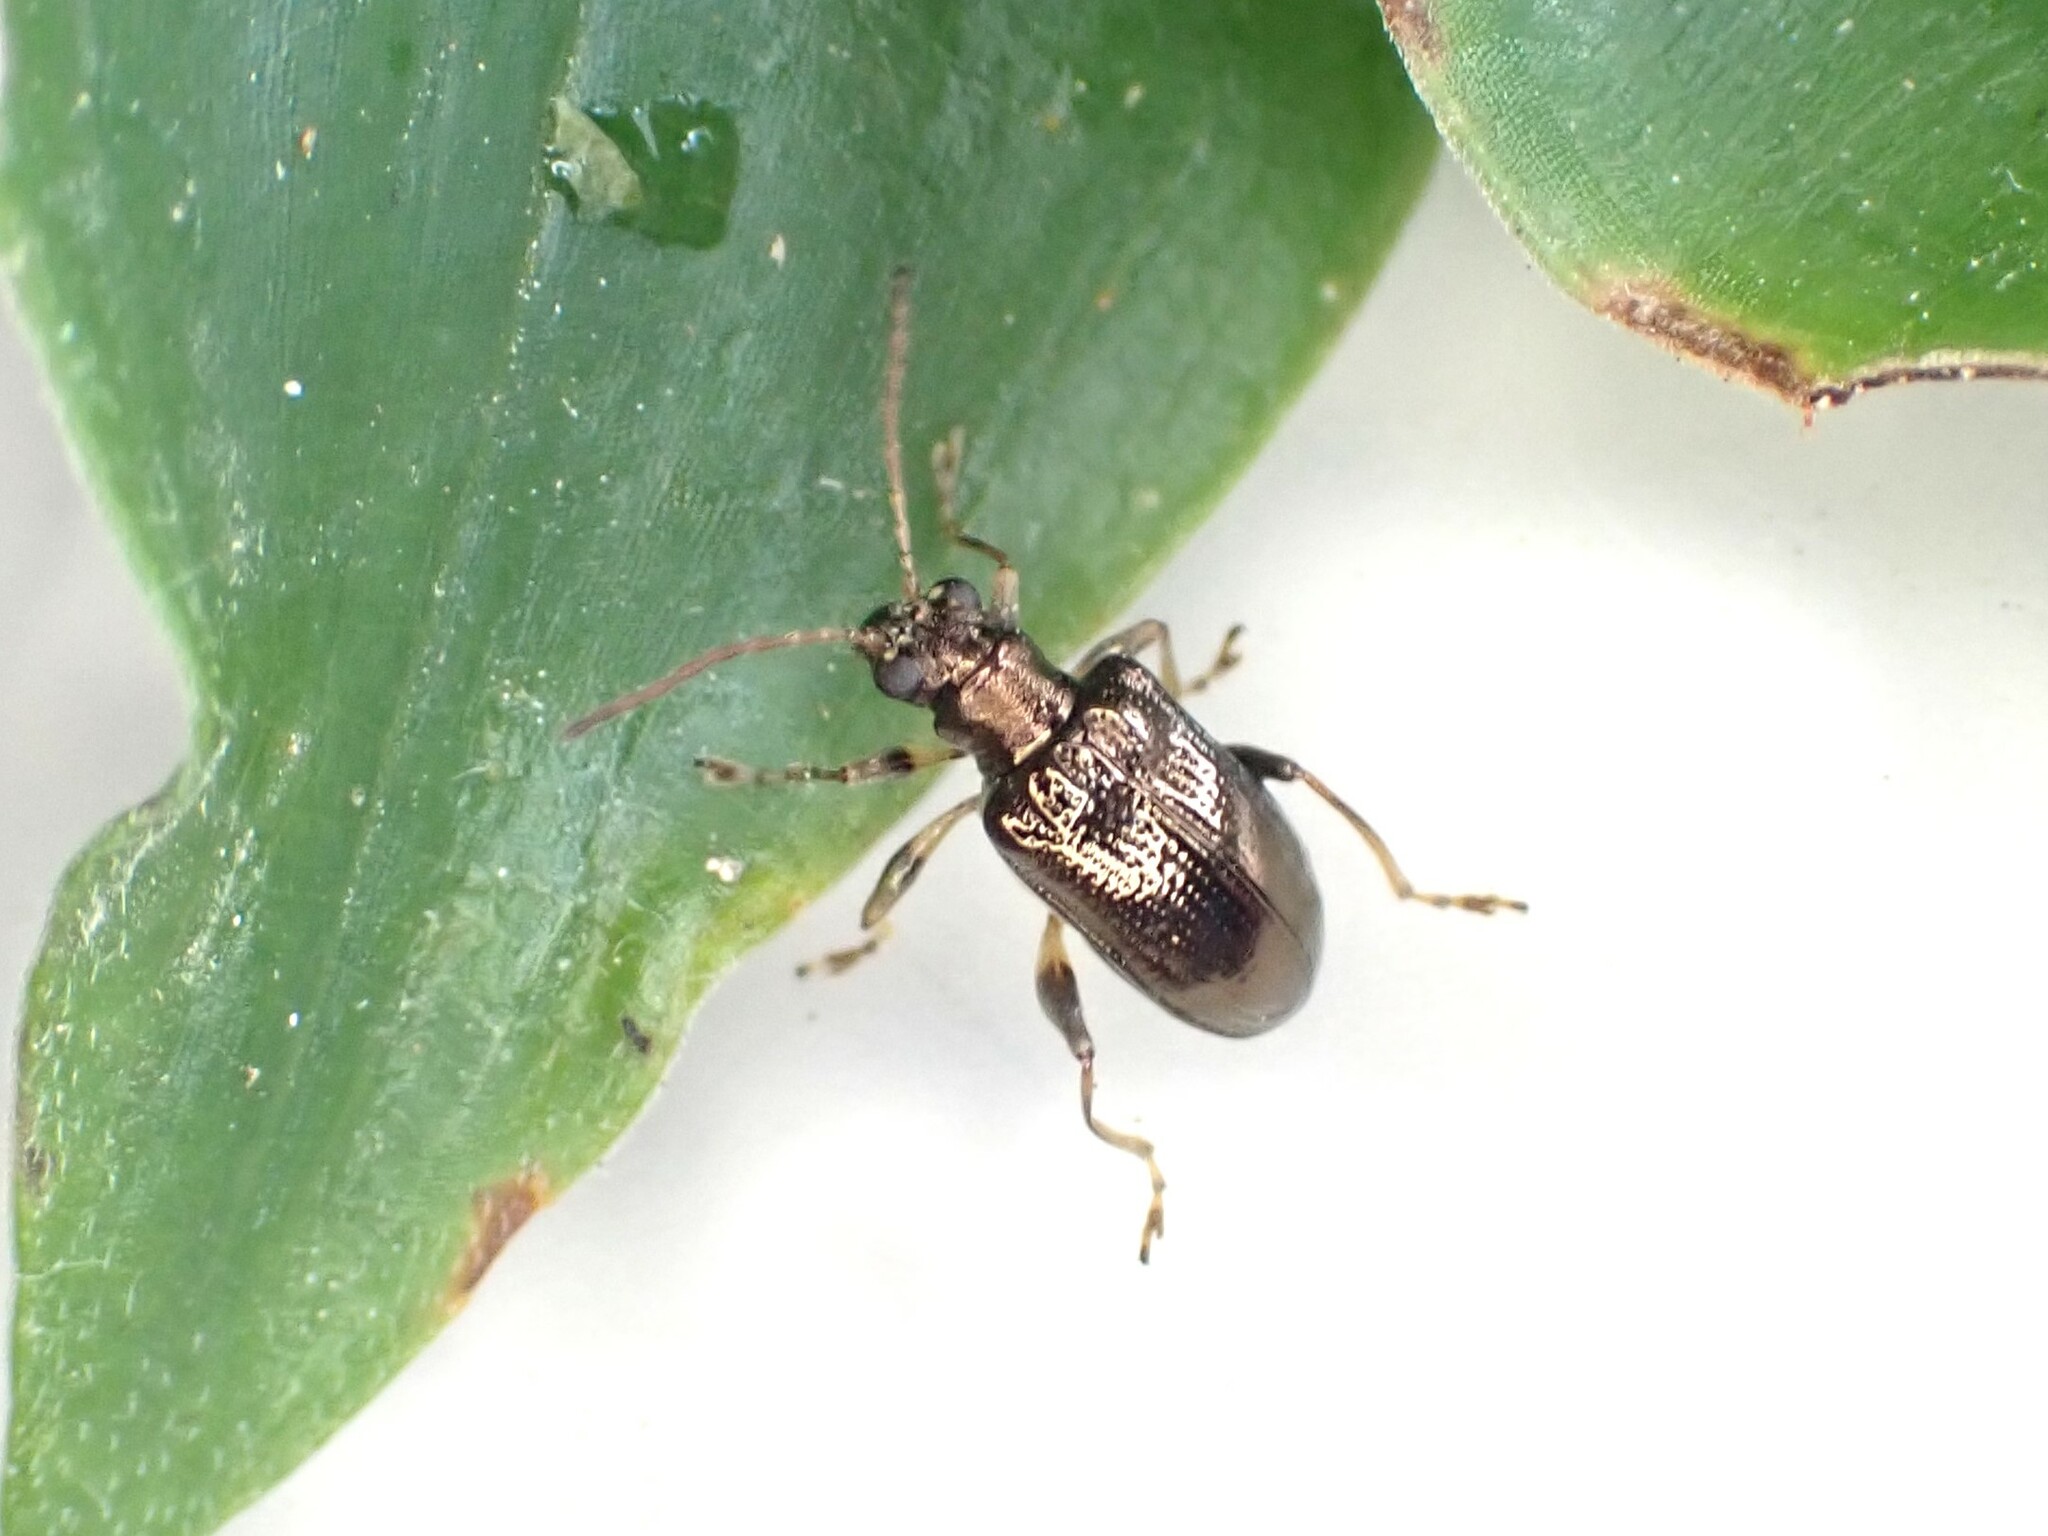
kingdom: Animalia
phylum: Arthropoda
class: Insecta
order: Coleoptera
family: Chrysomelidae
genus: Neolema
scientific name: Neolema ogloblini
